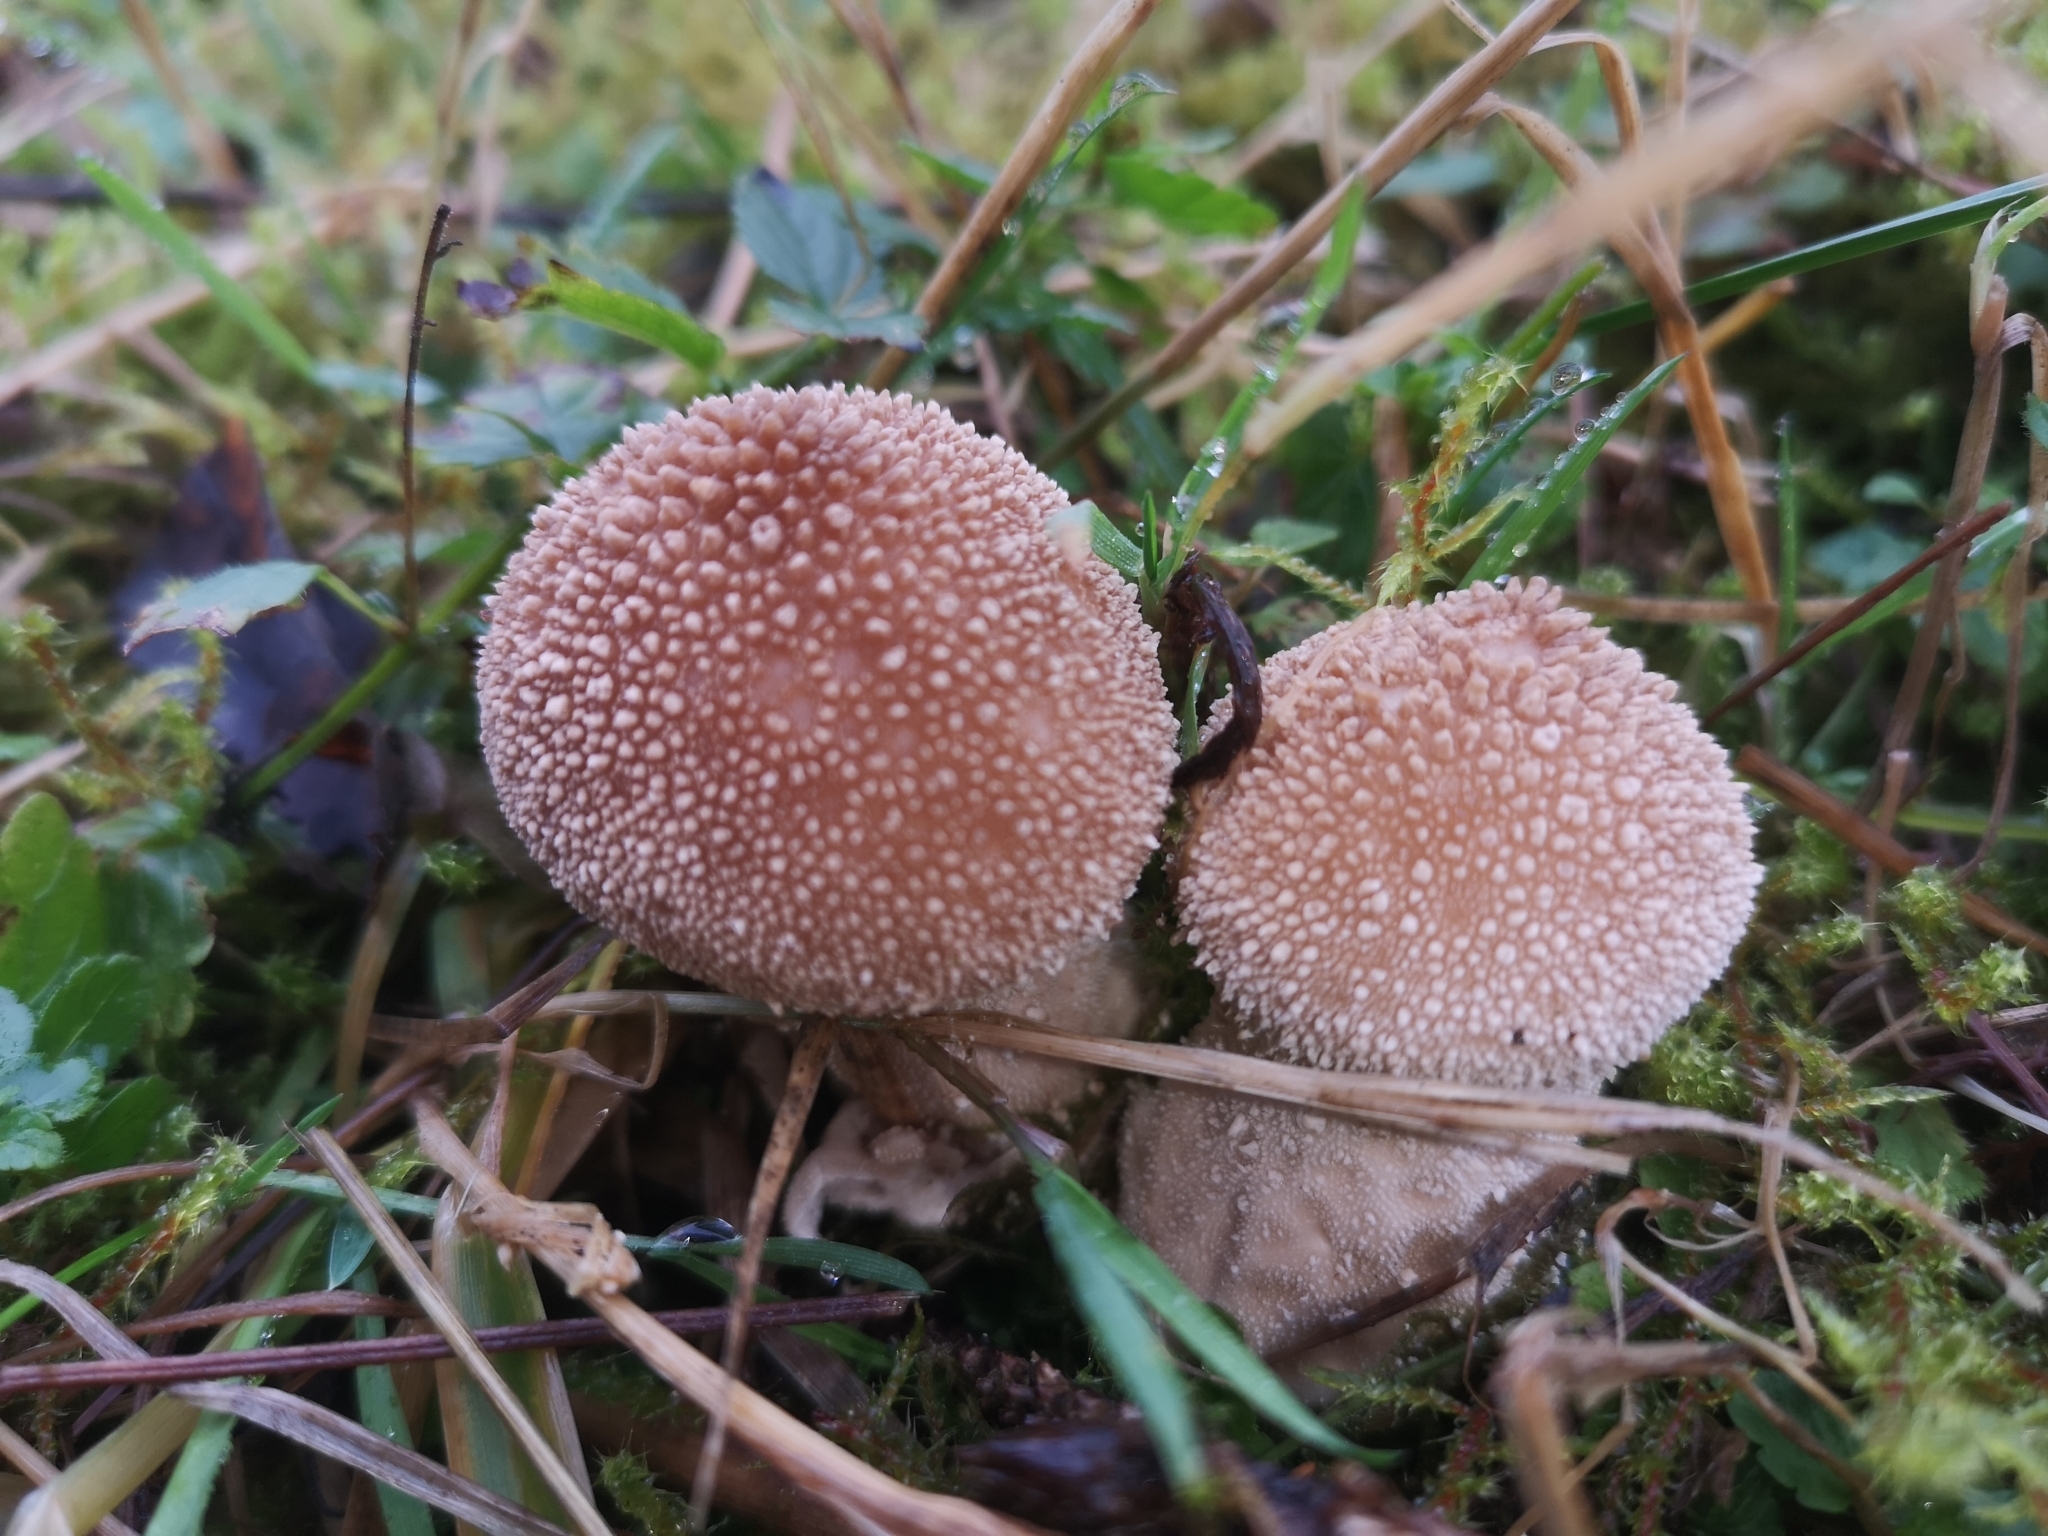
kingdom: Fungi
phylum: Basidiomycota
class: Agaricomycetes
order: Agaricales
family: Lycoperdaceae
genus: Lycoperdon
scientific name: Lycoperdon perlatum
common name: Common puffball
